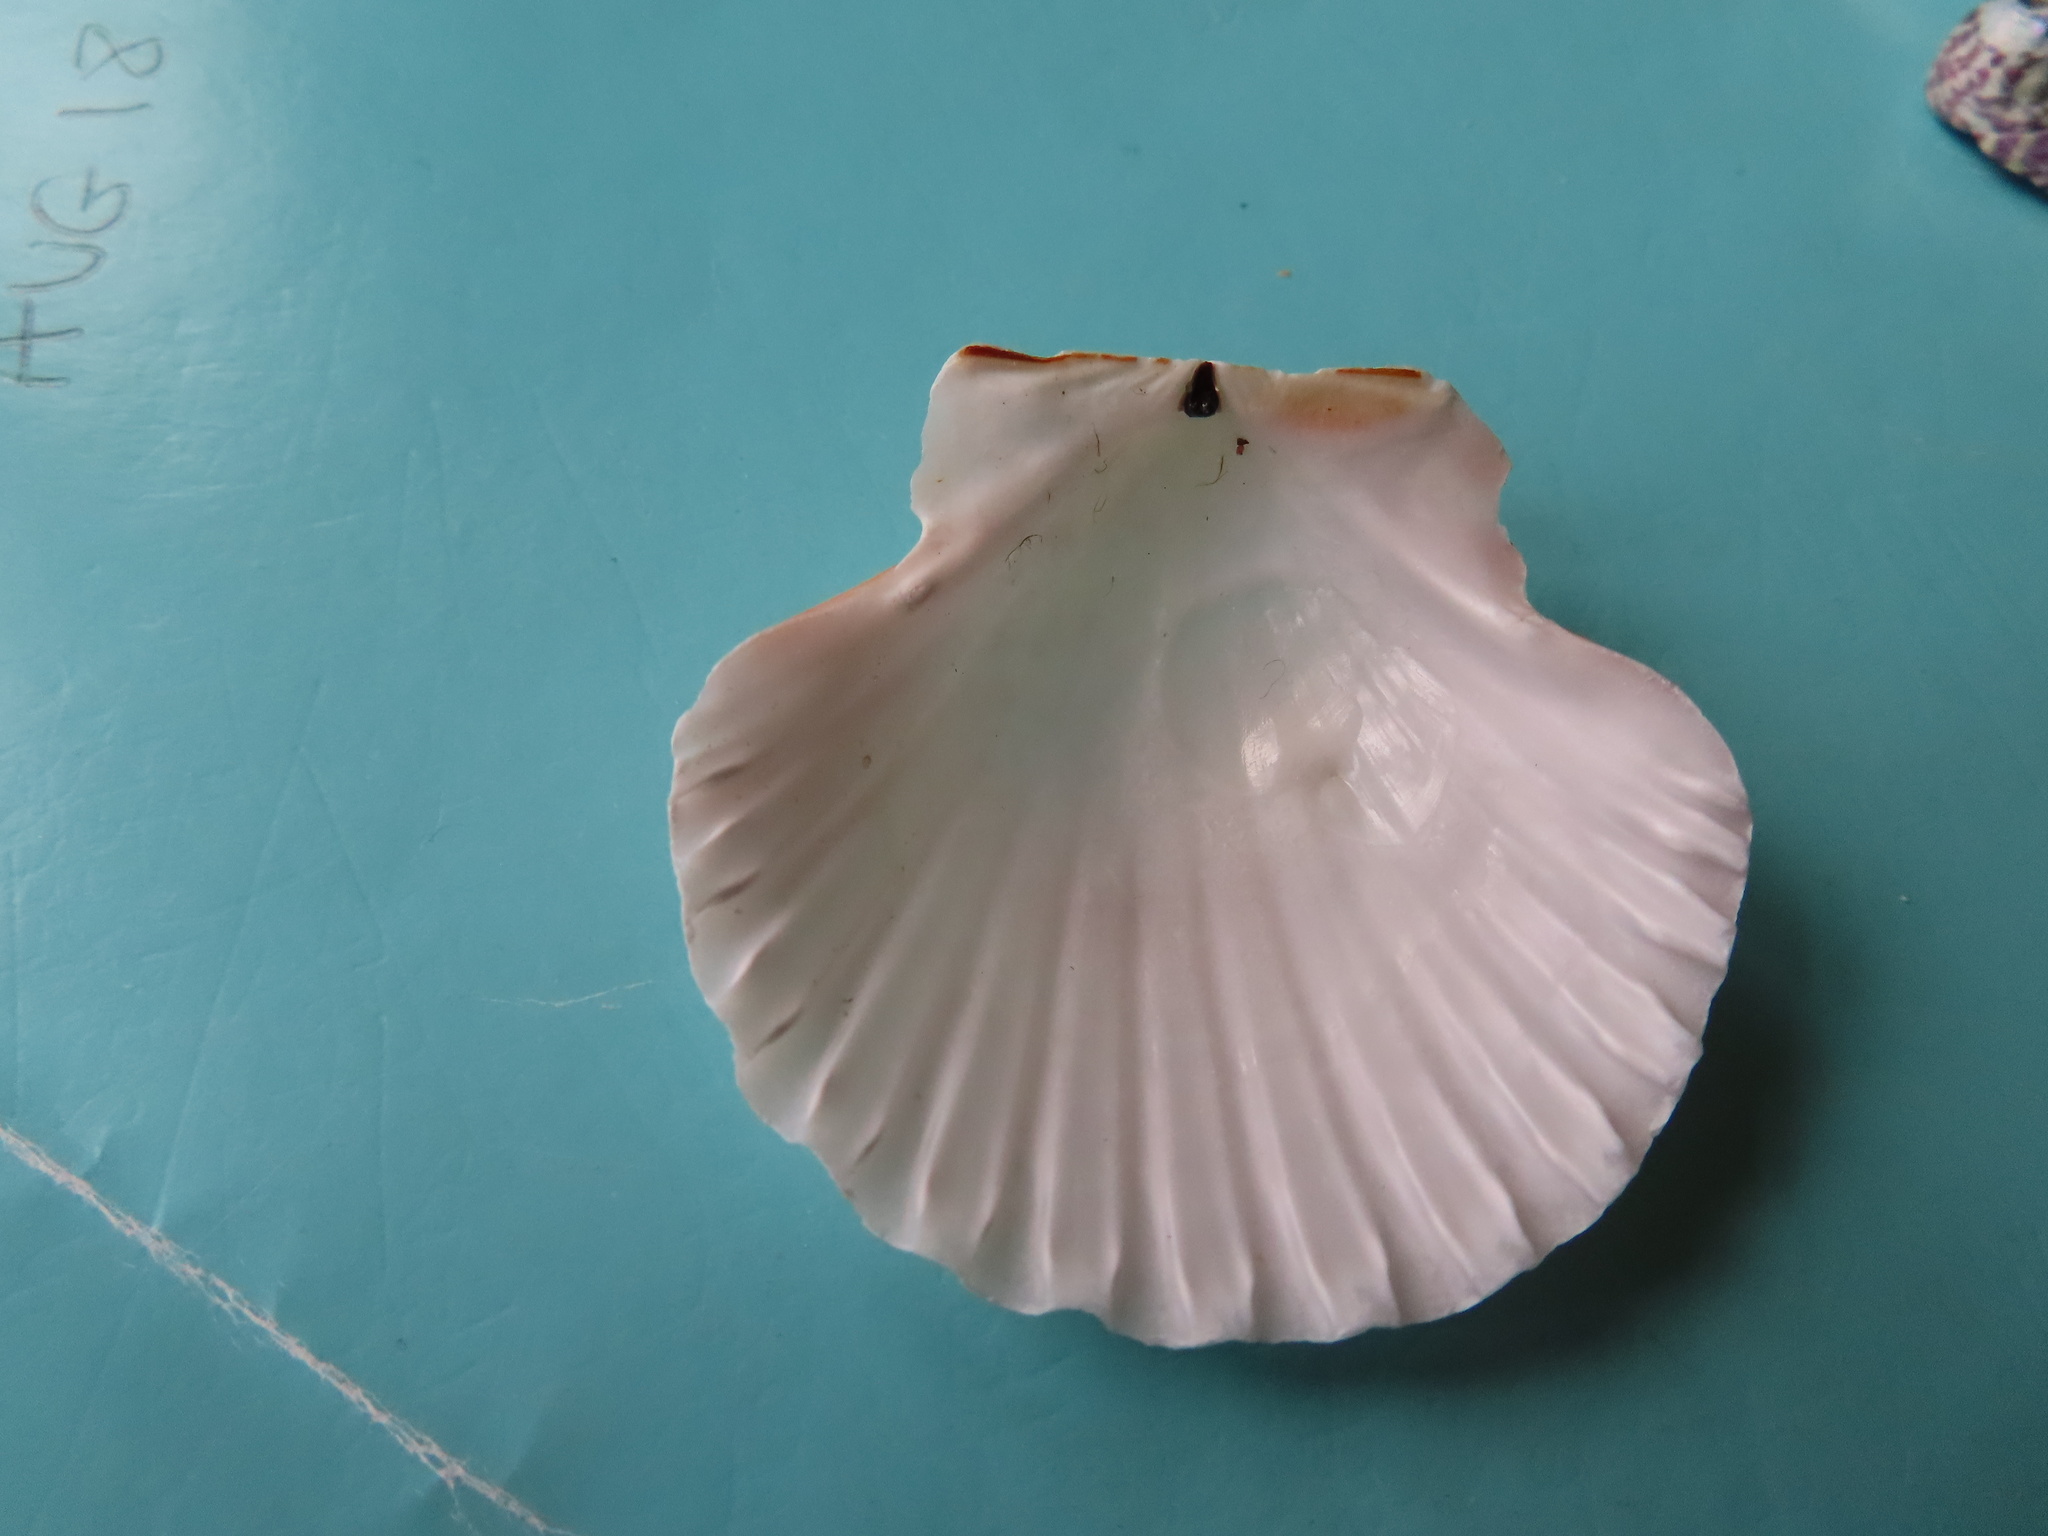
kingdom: Animalia
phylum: Mollusca
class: Bivalvia
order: Pectinida
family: Pectinidae
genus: Pecten
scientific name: Pecten maximus
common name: Great scallop
